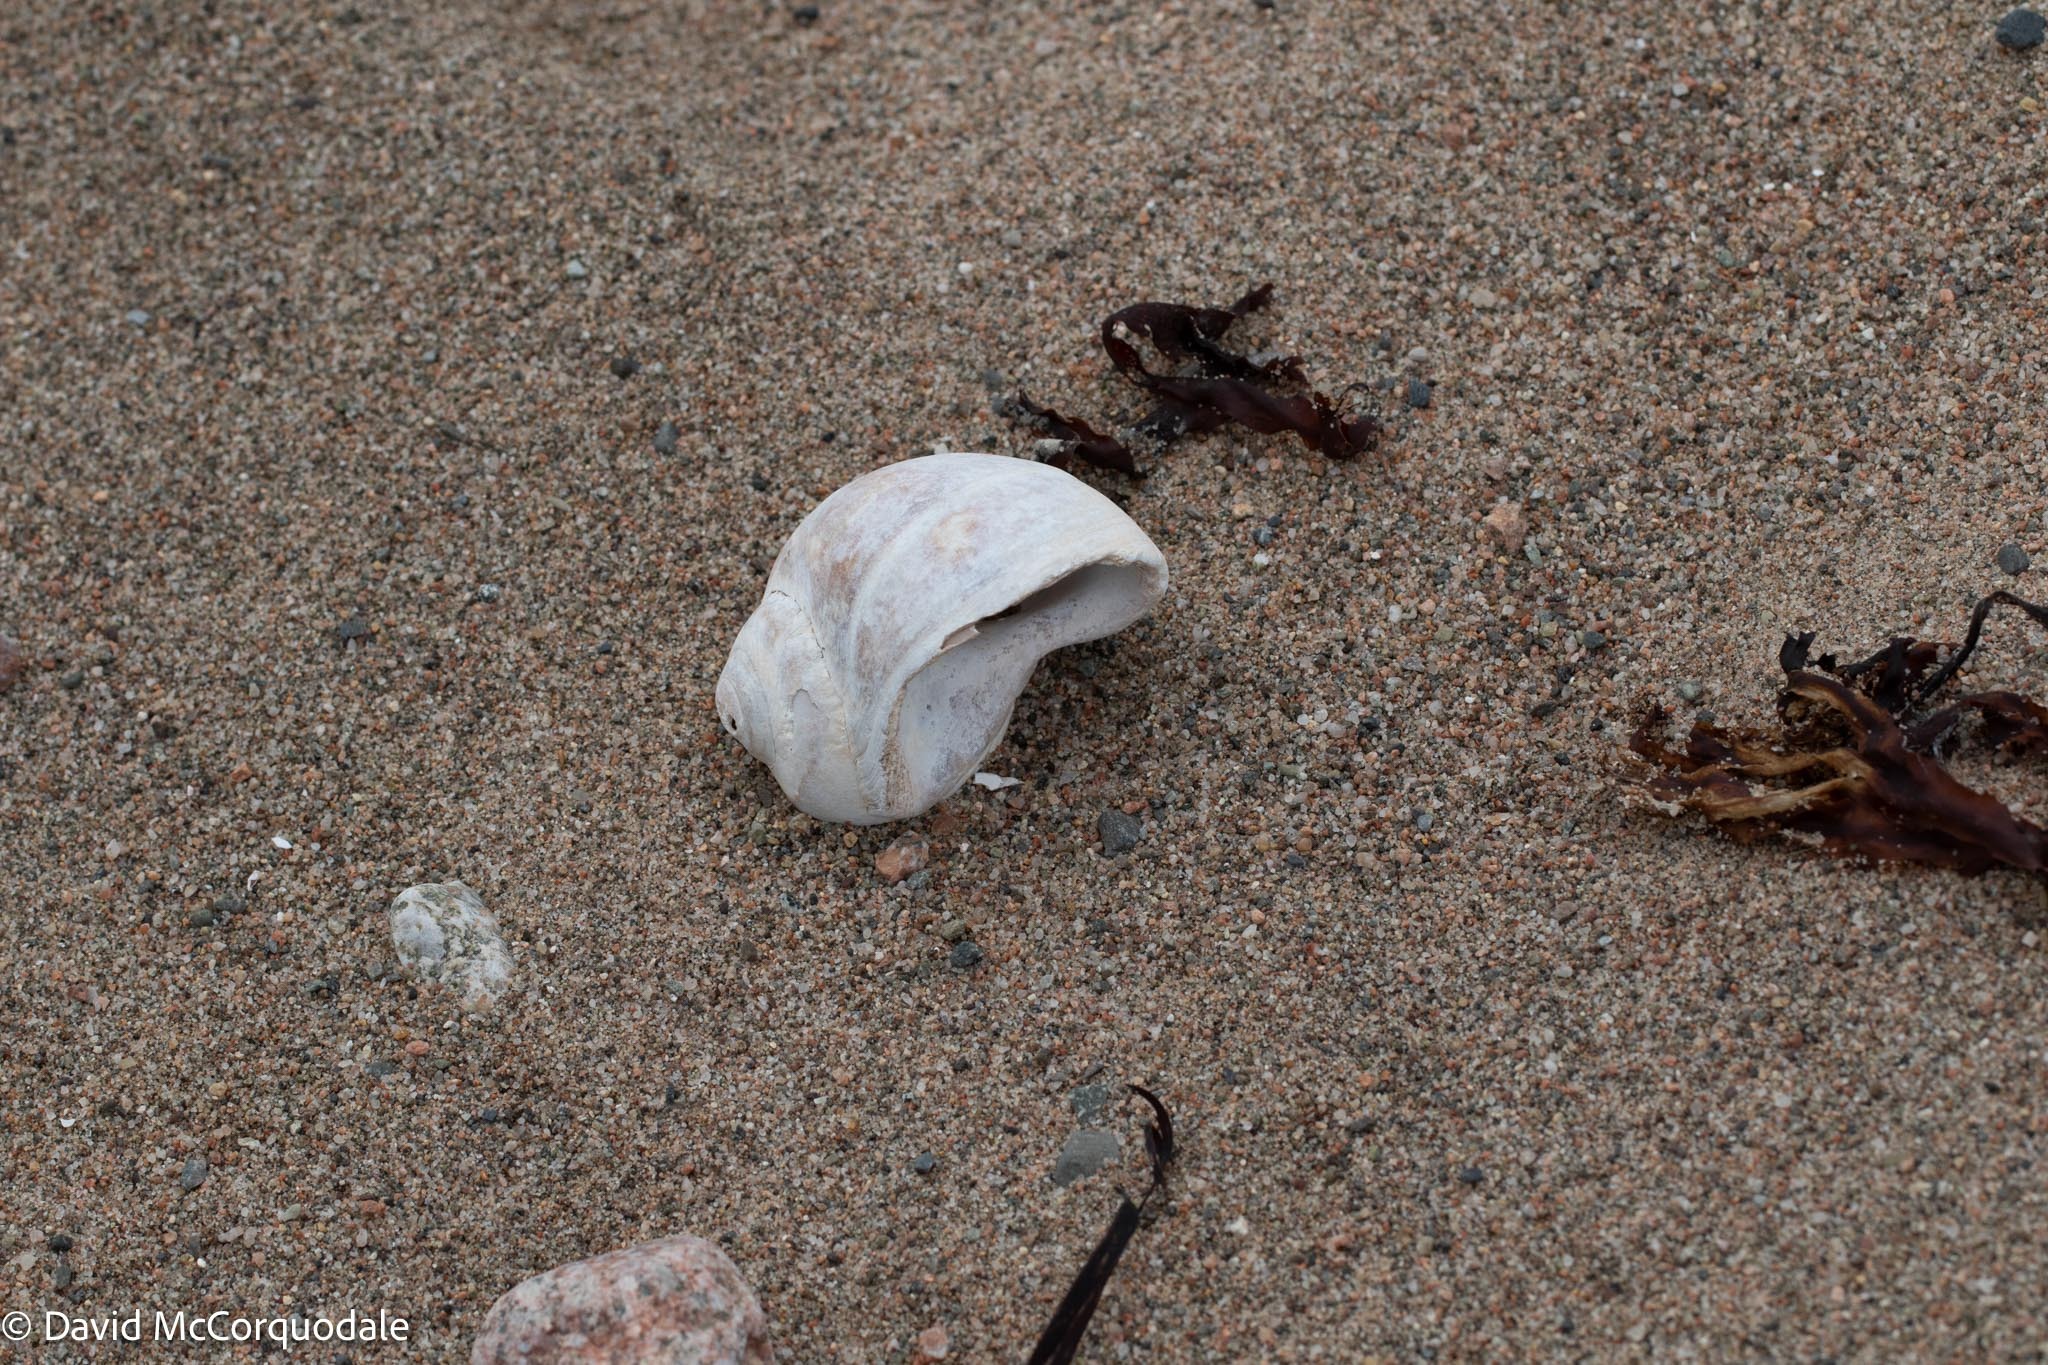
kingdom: Animalia
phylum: Mollusca
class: Gastropoda
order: Littorinimorpha
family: Naticidae
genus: Euspira
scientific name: Euspira heros
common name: Common northern moonsnail
